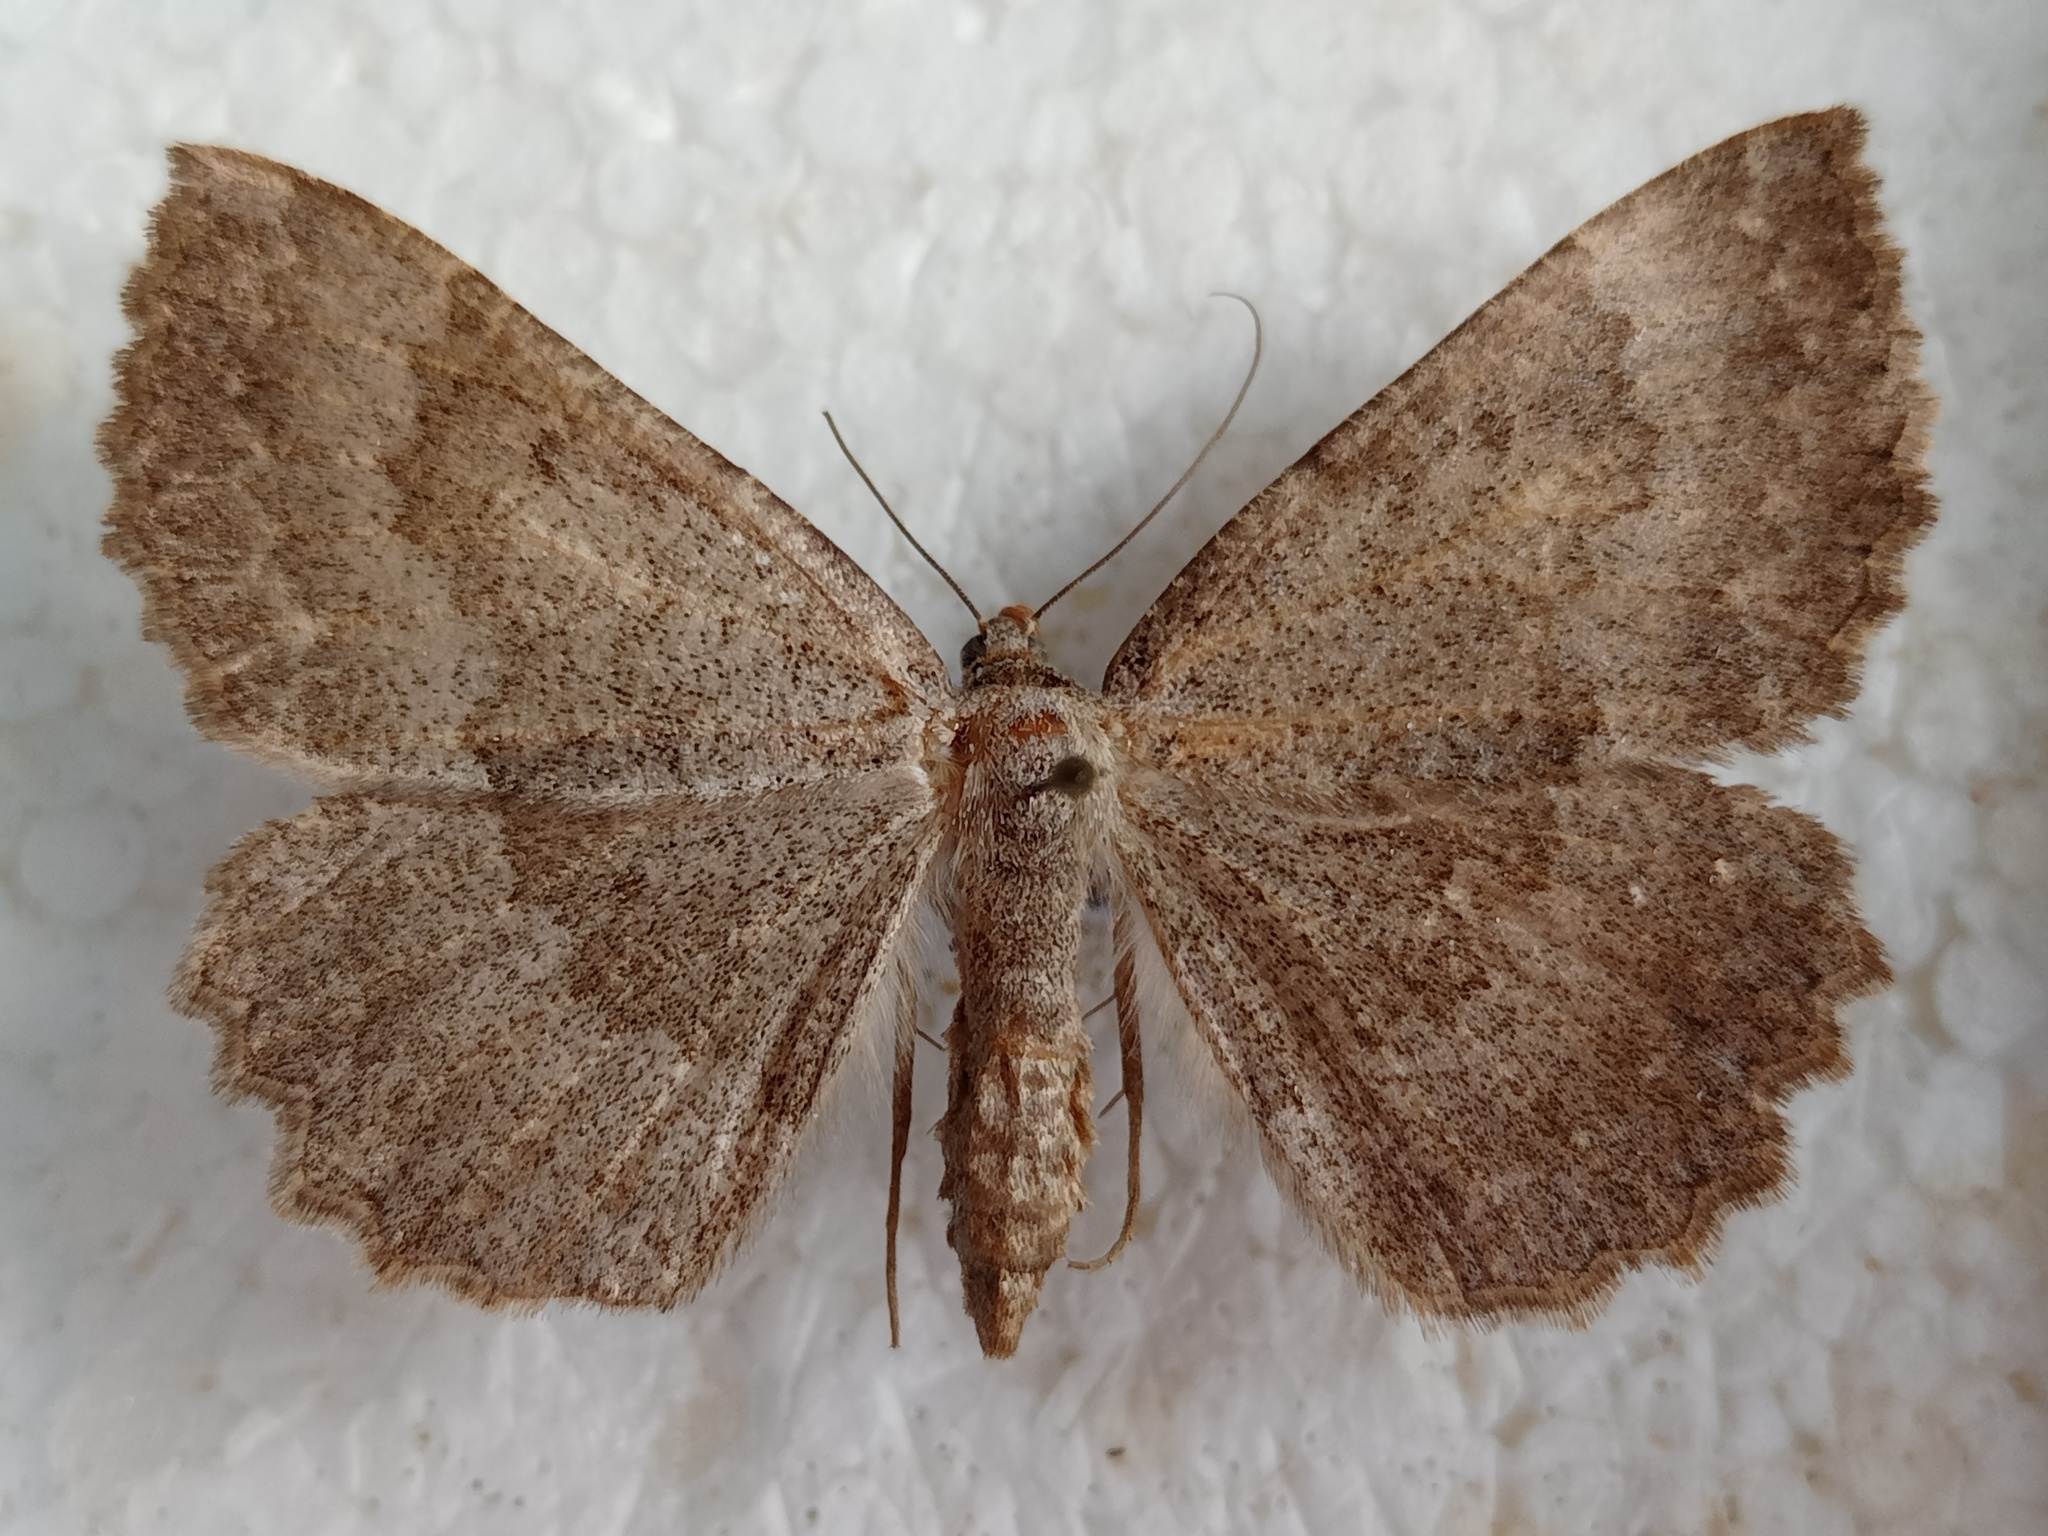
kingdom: Animalia
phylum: Arthropoda
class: Insecta
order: Lepidoptera
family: Geometridae
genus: Gnophos
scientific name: Gnophos furvata
